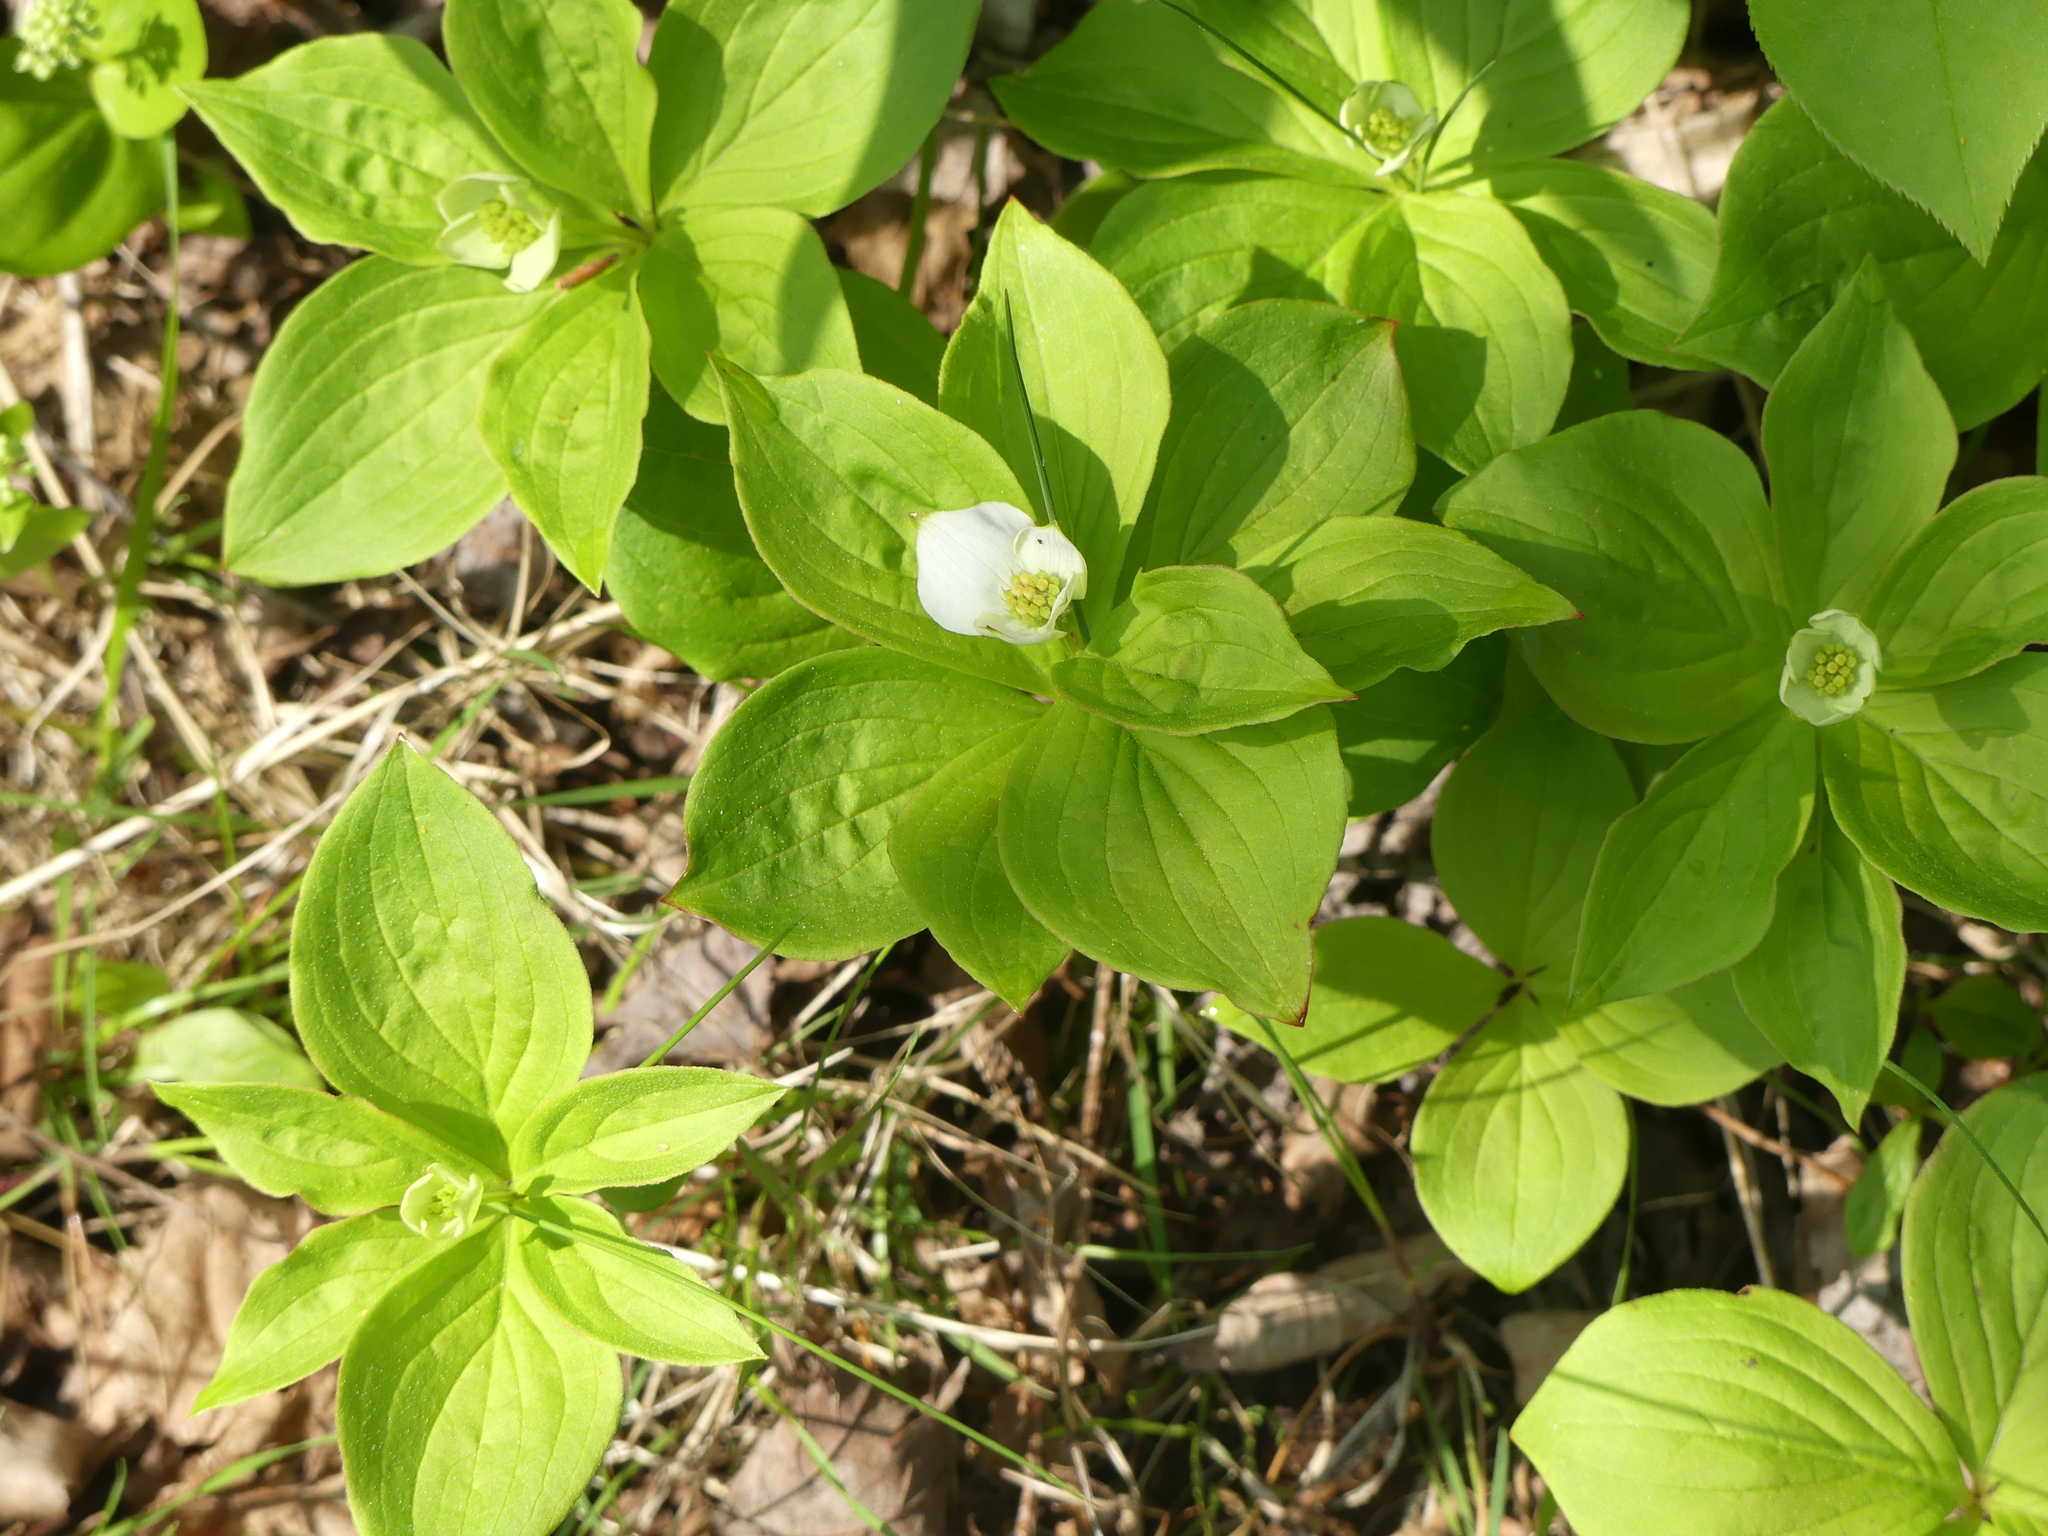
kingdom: Plantae
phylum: Tracheophyta
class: Magnoliopsida
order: Cornales
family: Cornaceae
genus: Cornus
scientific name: Cornus canadensis
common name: Creeping dogwood
